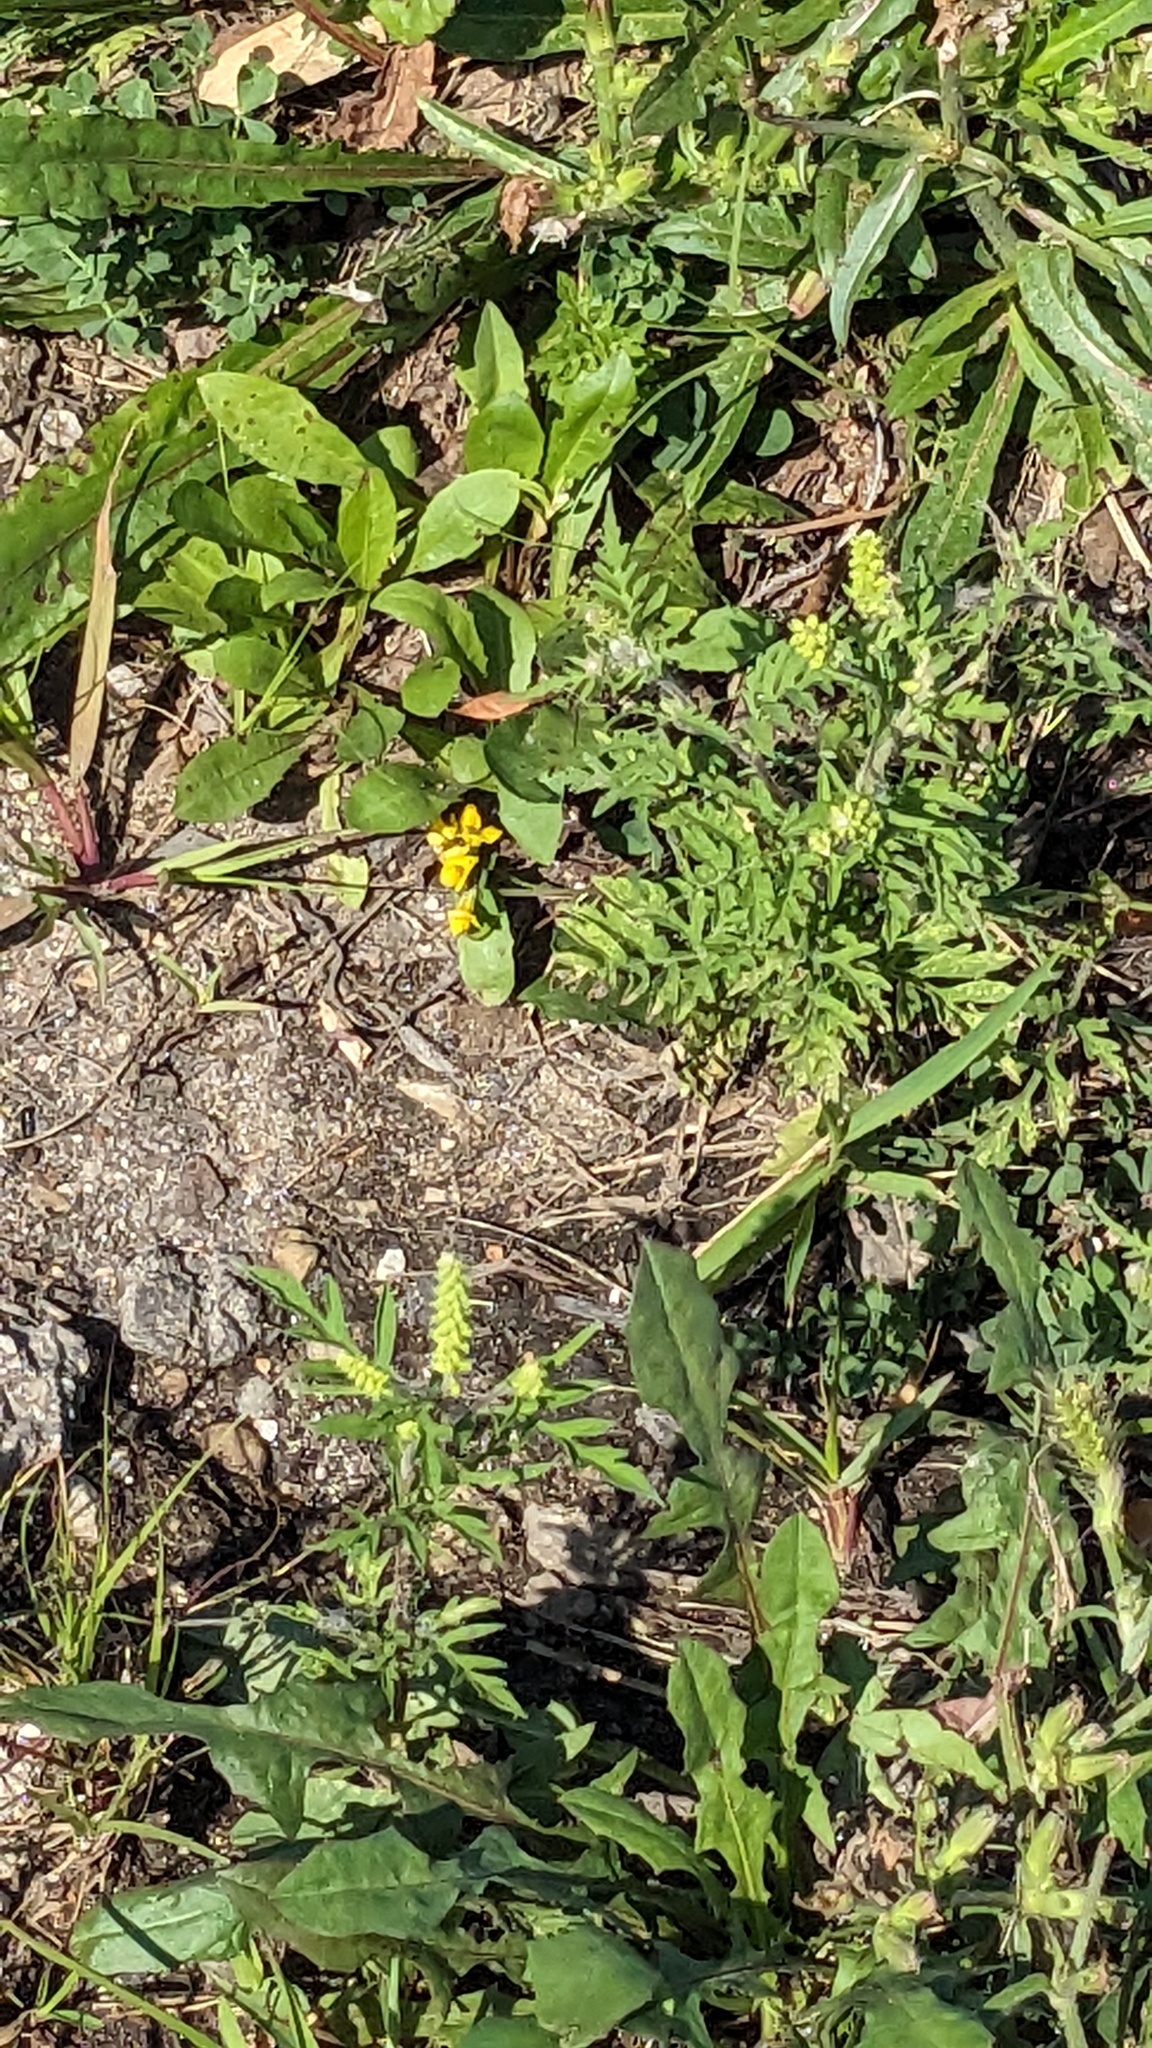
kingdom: Plantae
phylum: Tracheophyta
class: Magnoliopsida
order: Asterales
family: Asteraceae
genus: Ambrosia
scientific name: Ambrosia artemisiifolia
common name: Annual ragweed
